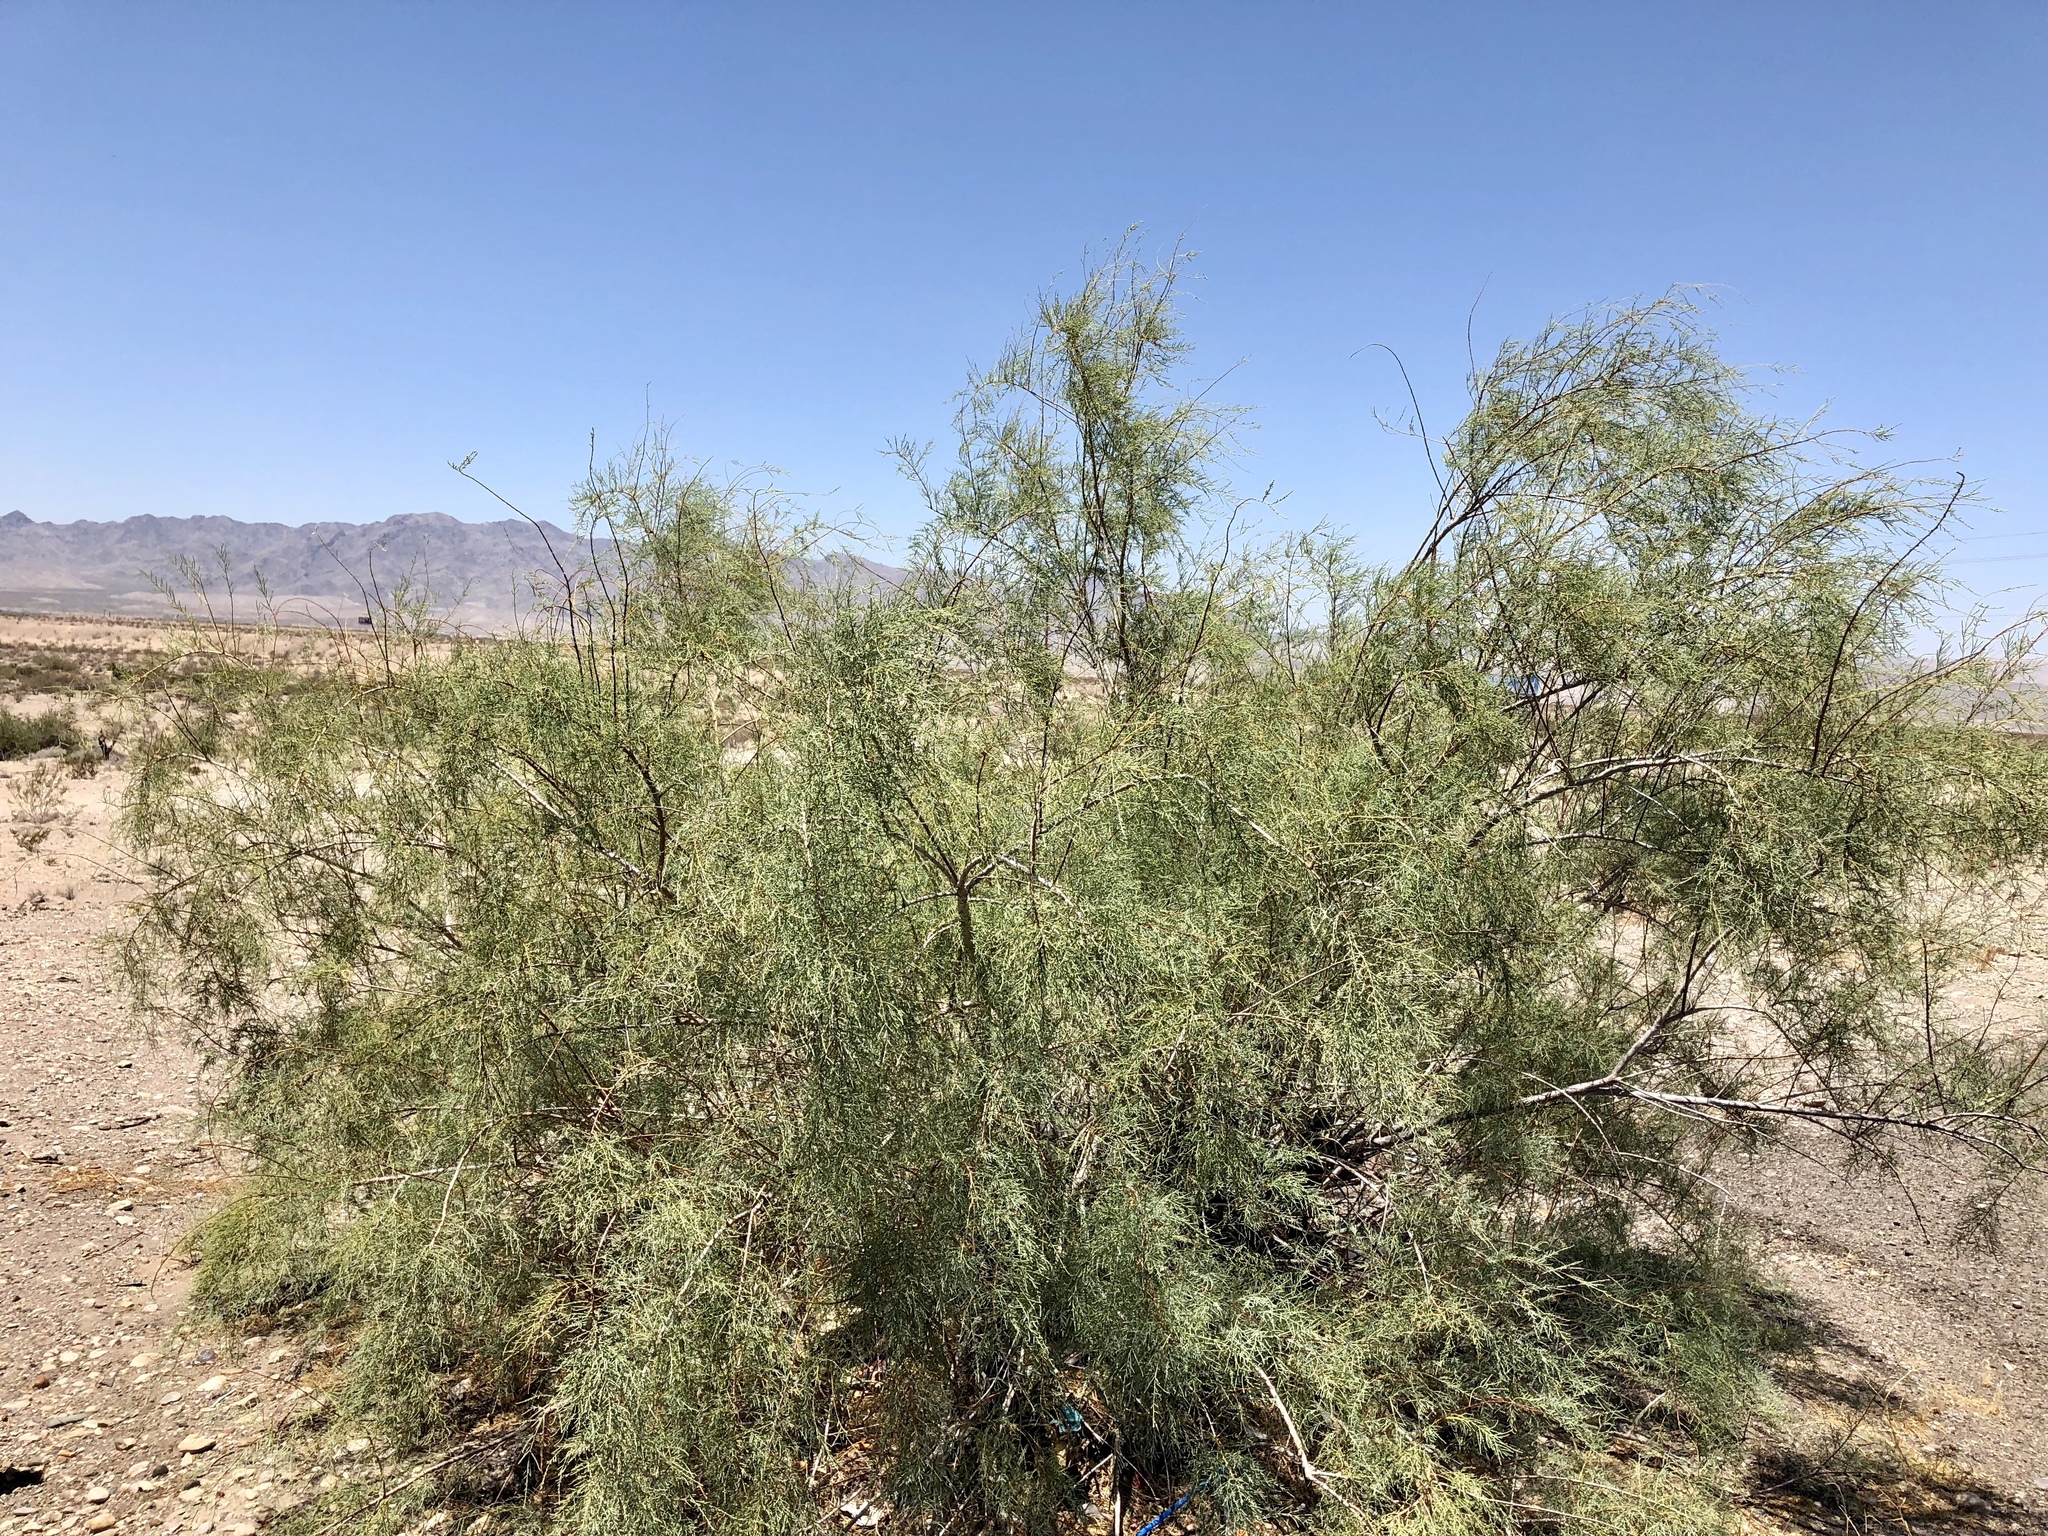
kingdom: Plantae
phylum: Tracheophyta
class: Magnoliopsida
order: Caryophyllales
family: Tamaricaceae
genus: Tamarix
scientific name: Tamarix
